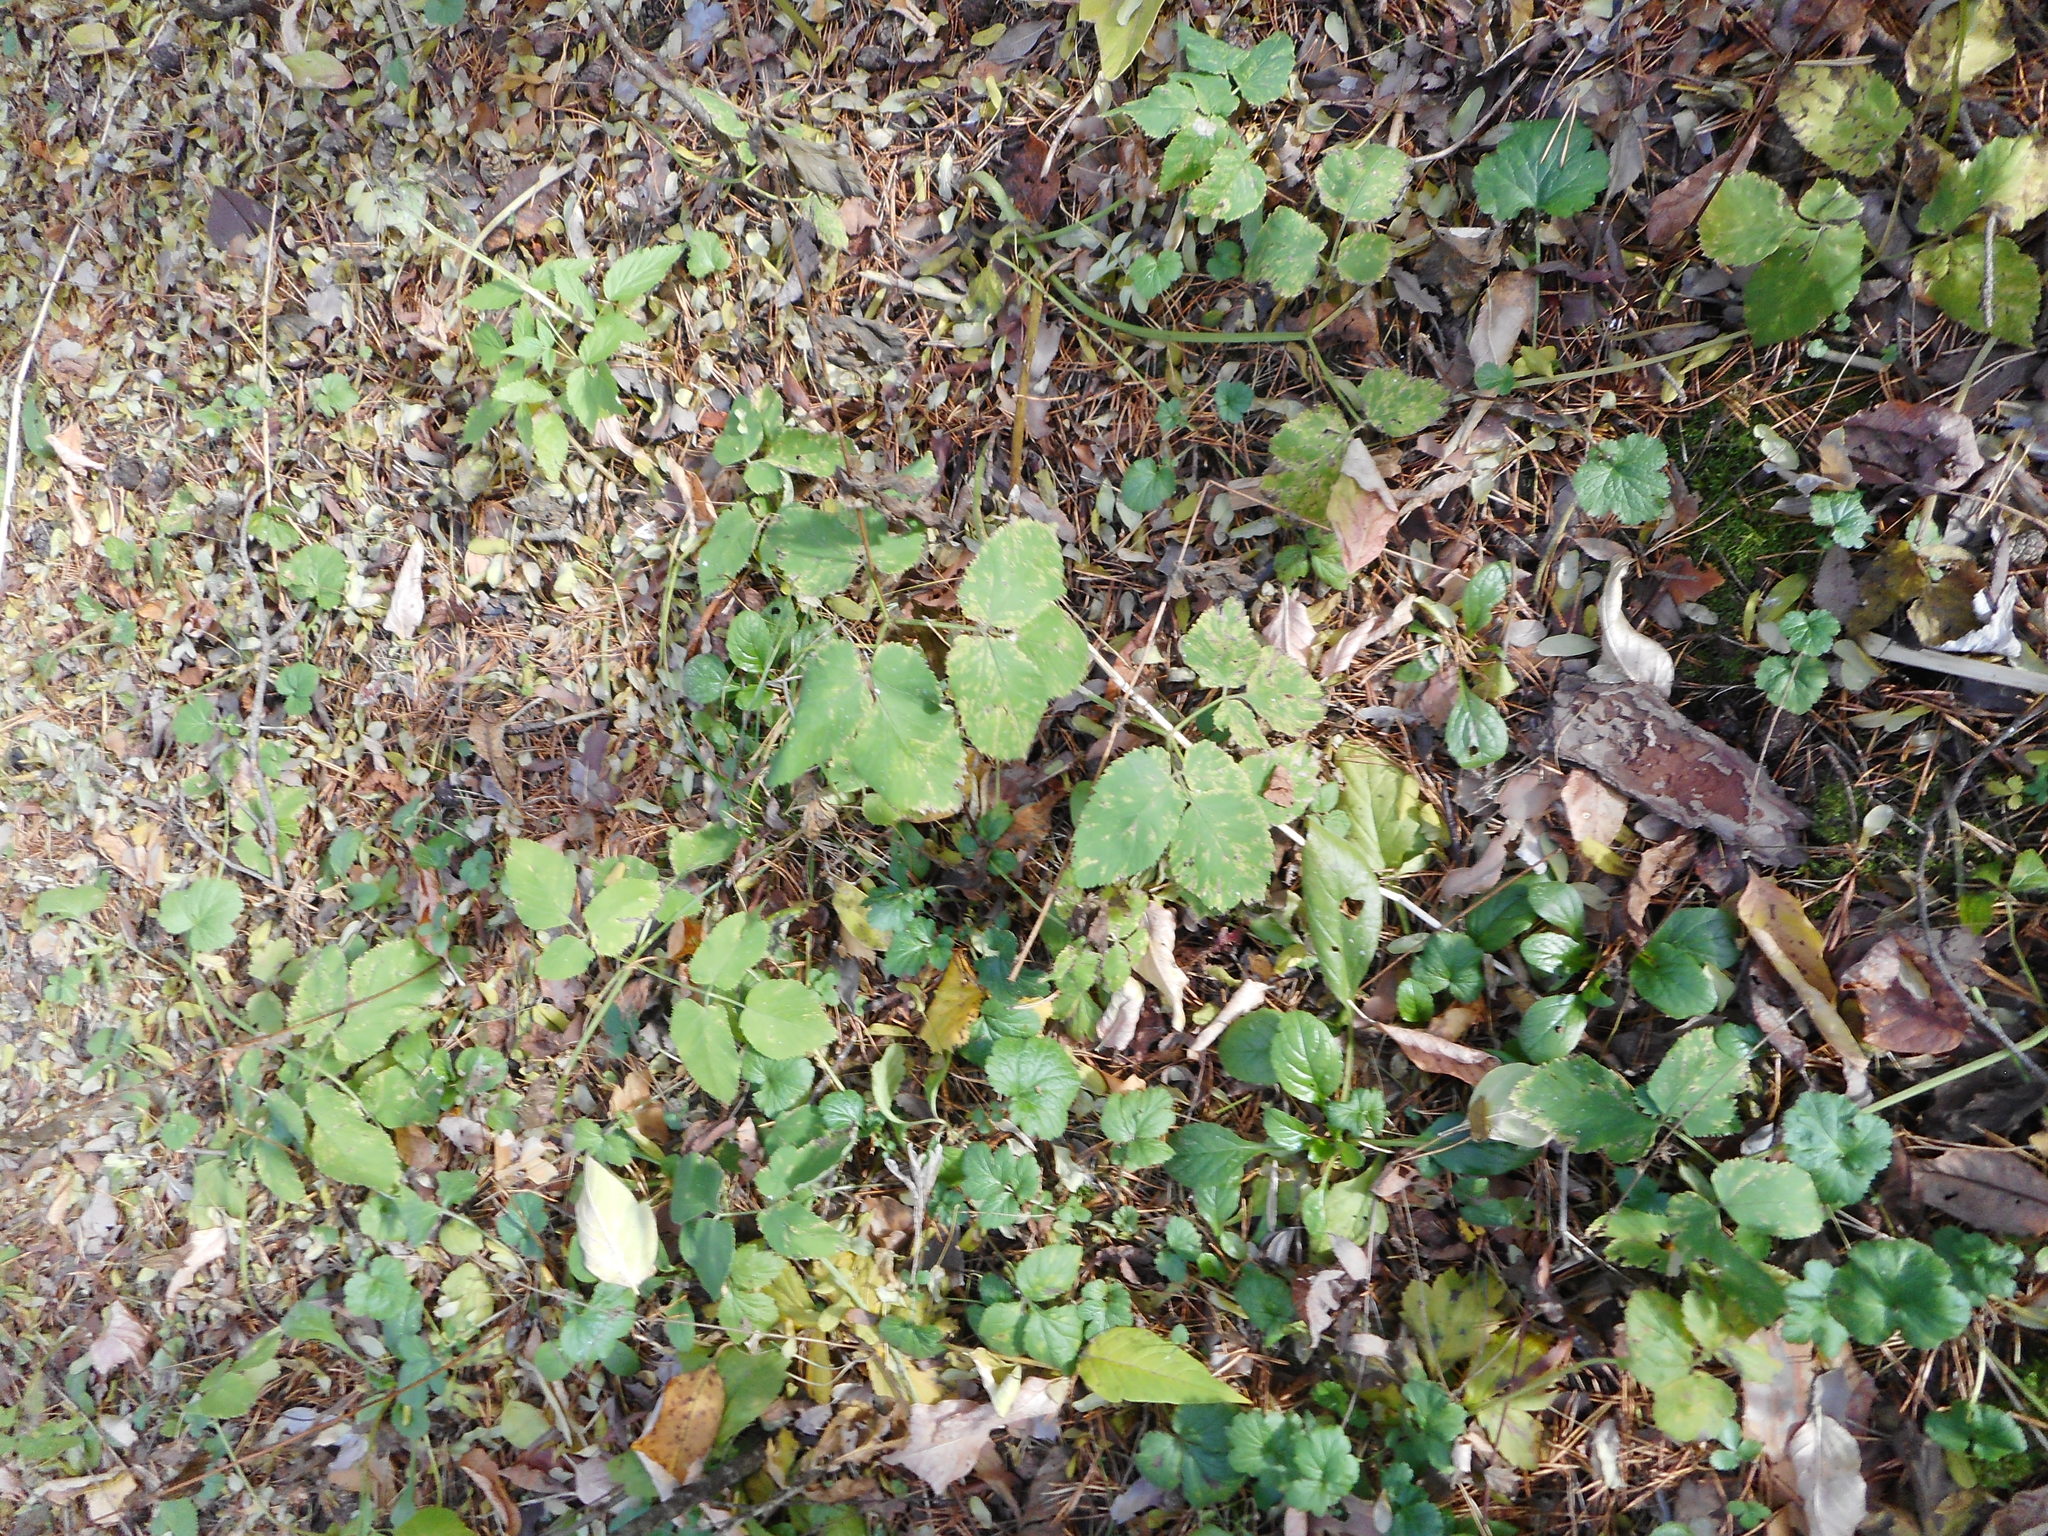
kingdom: Plantae
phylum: Tracheophyta
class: Magnoliopsida
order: Apiales
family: Apiaceae
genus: Aegopodium
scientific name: Aegopodium podagraria
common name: Ground-elder
